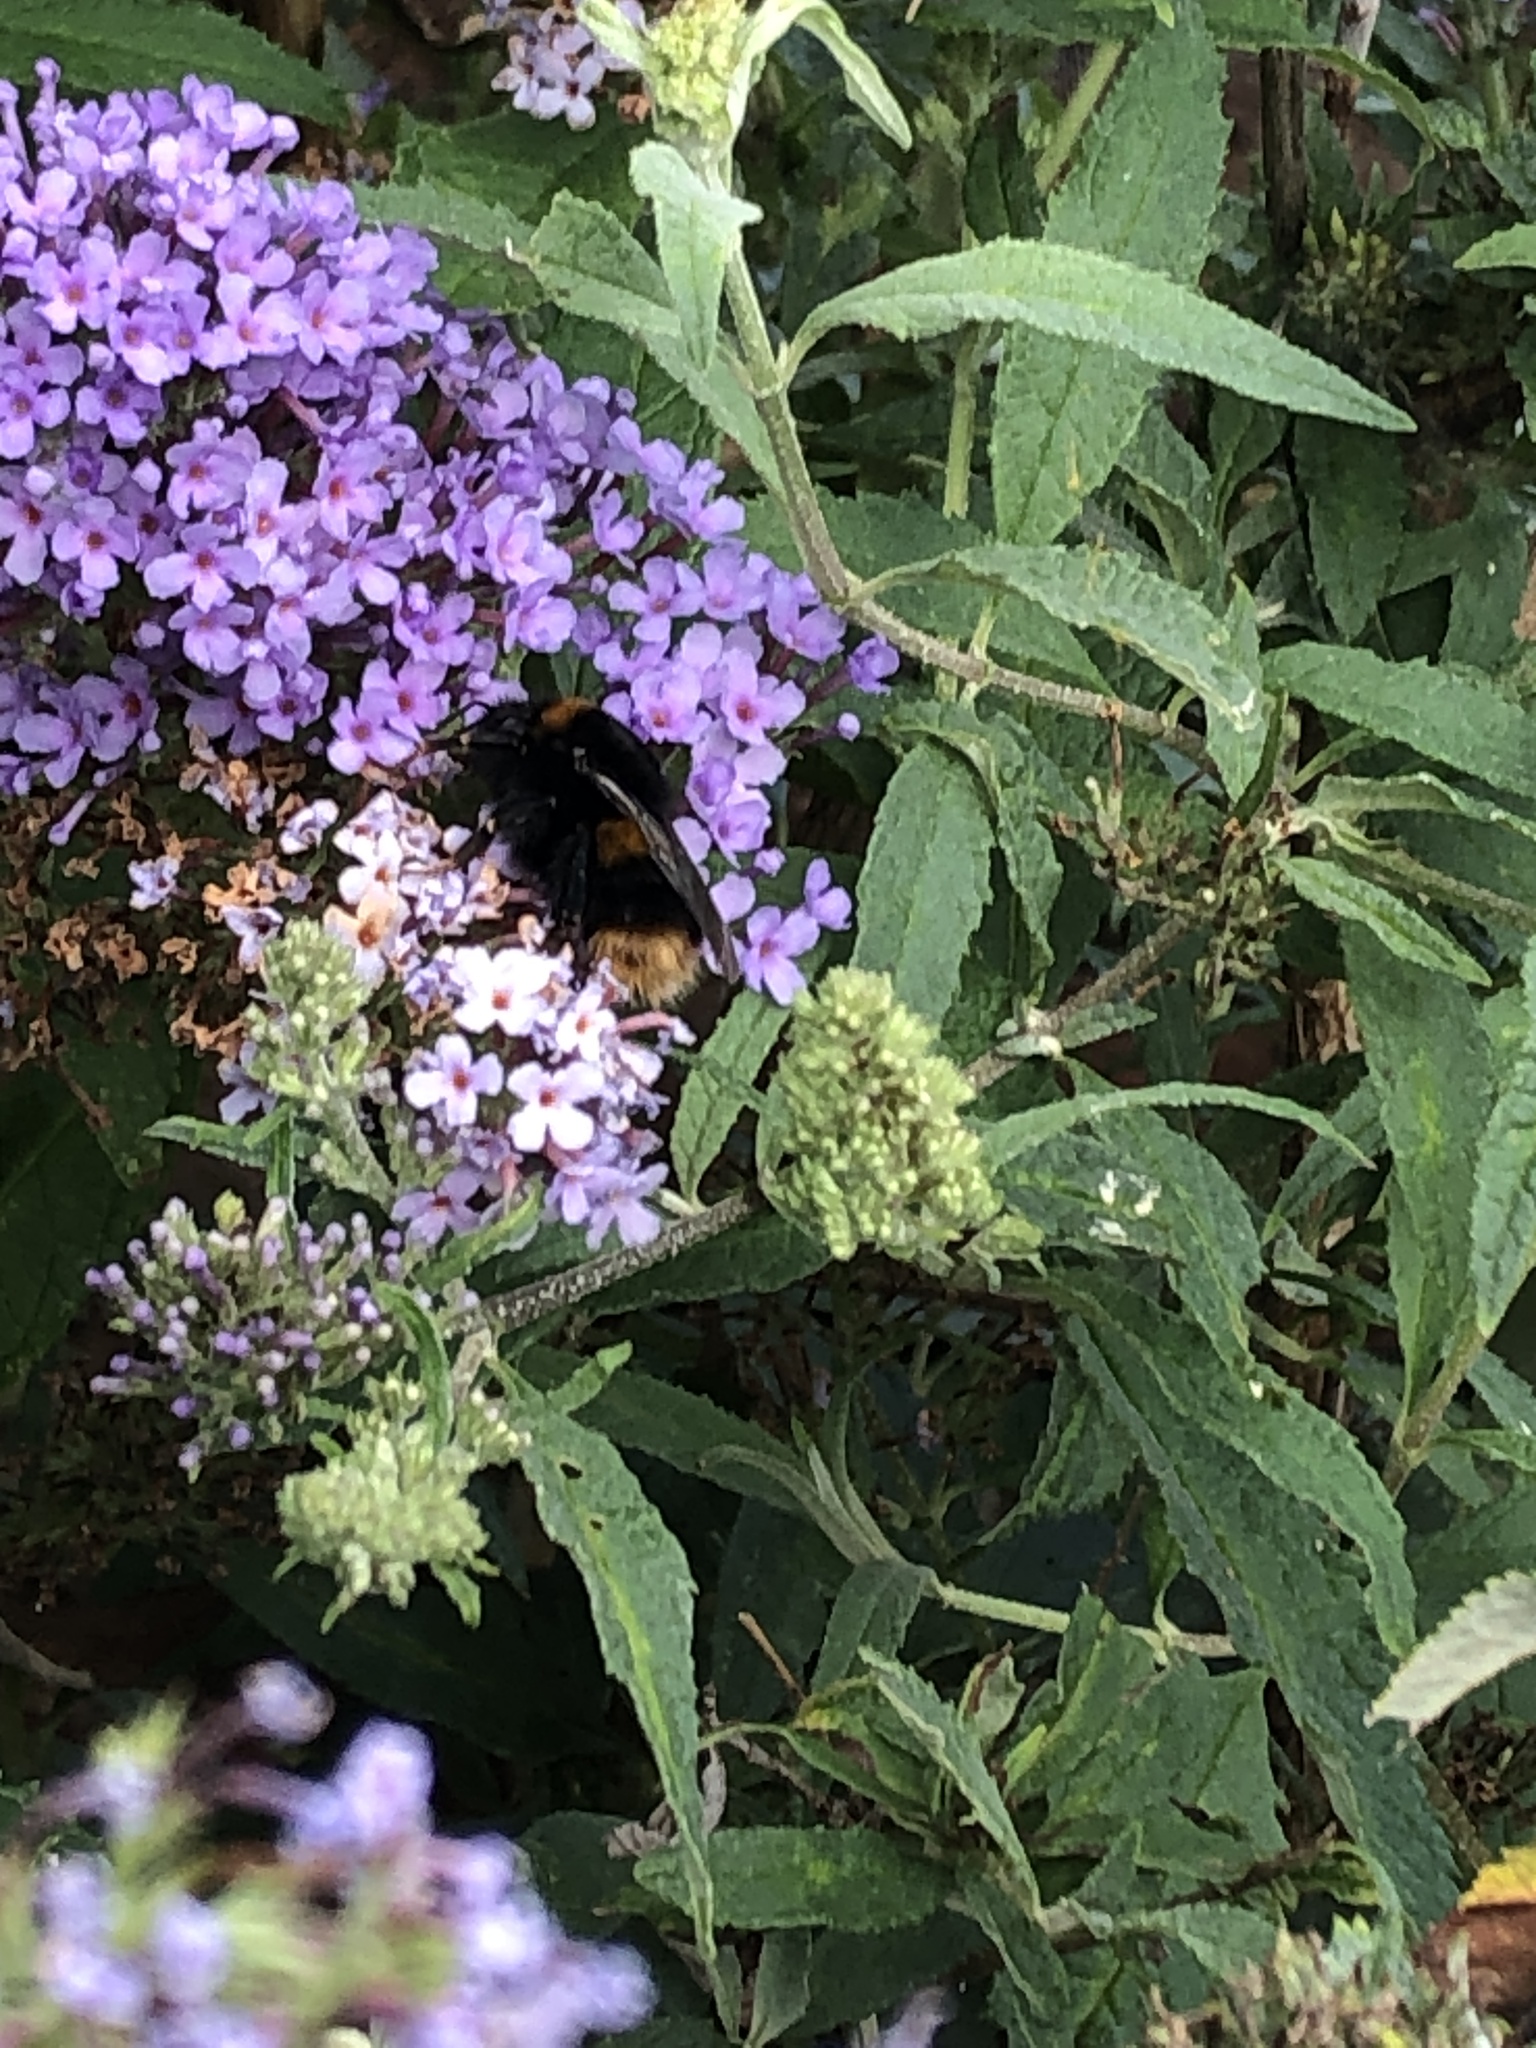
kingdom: Animalia
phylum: Arthropoda
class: Insecta
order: Hymenoptera
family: Apidae
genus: Bombus
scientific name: Bombus terrestris
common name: Buff-tailed bumblebee
